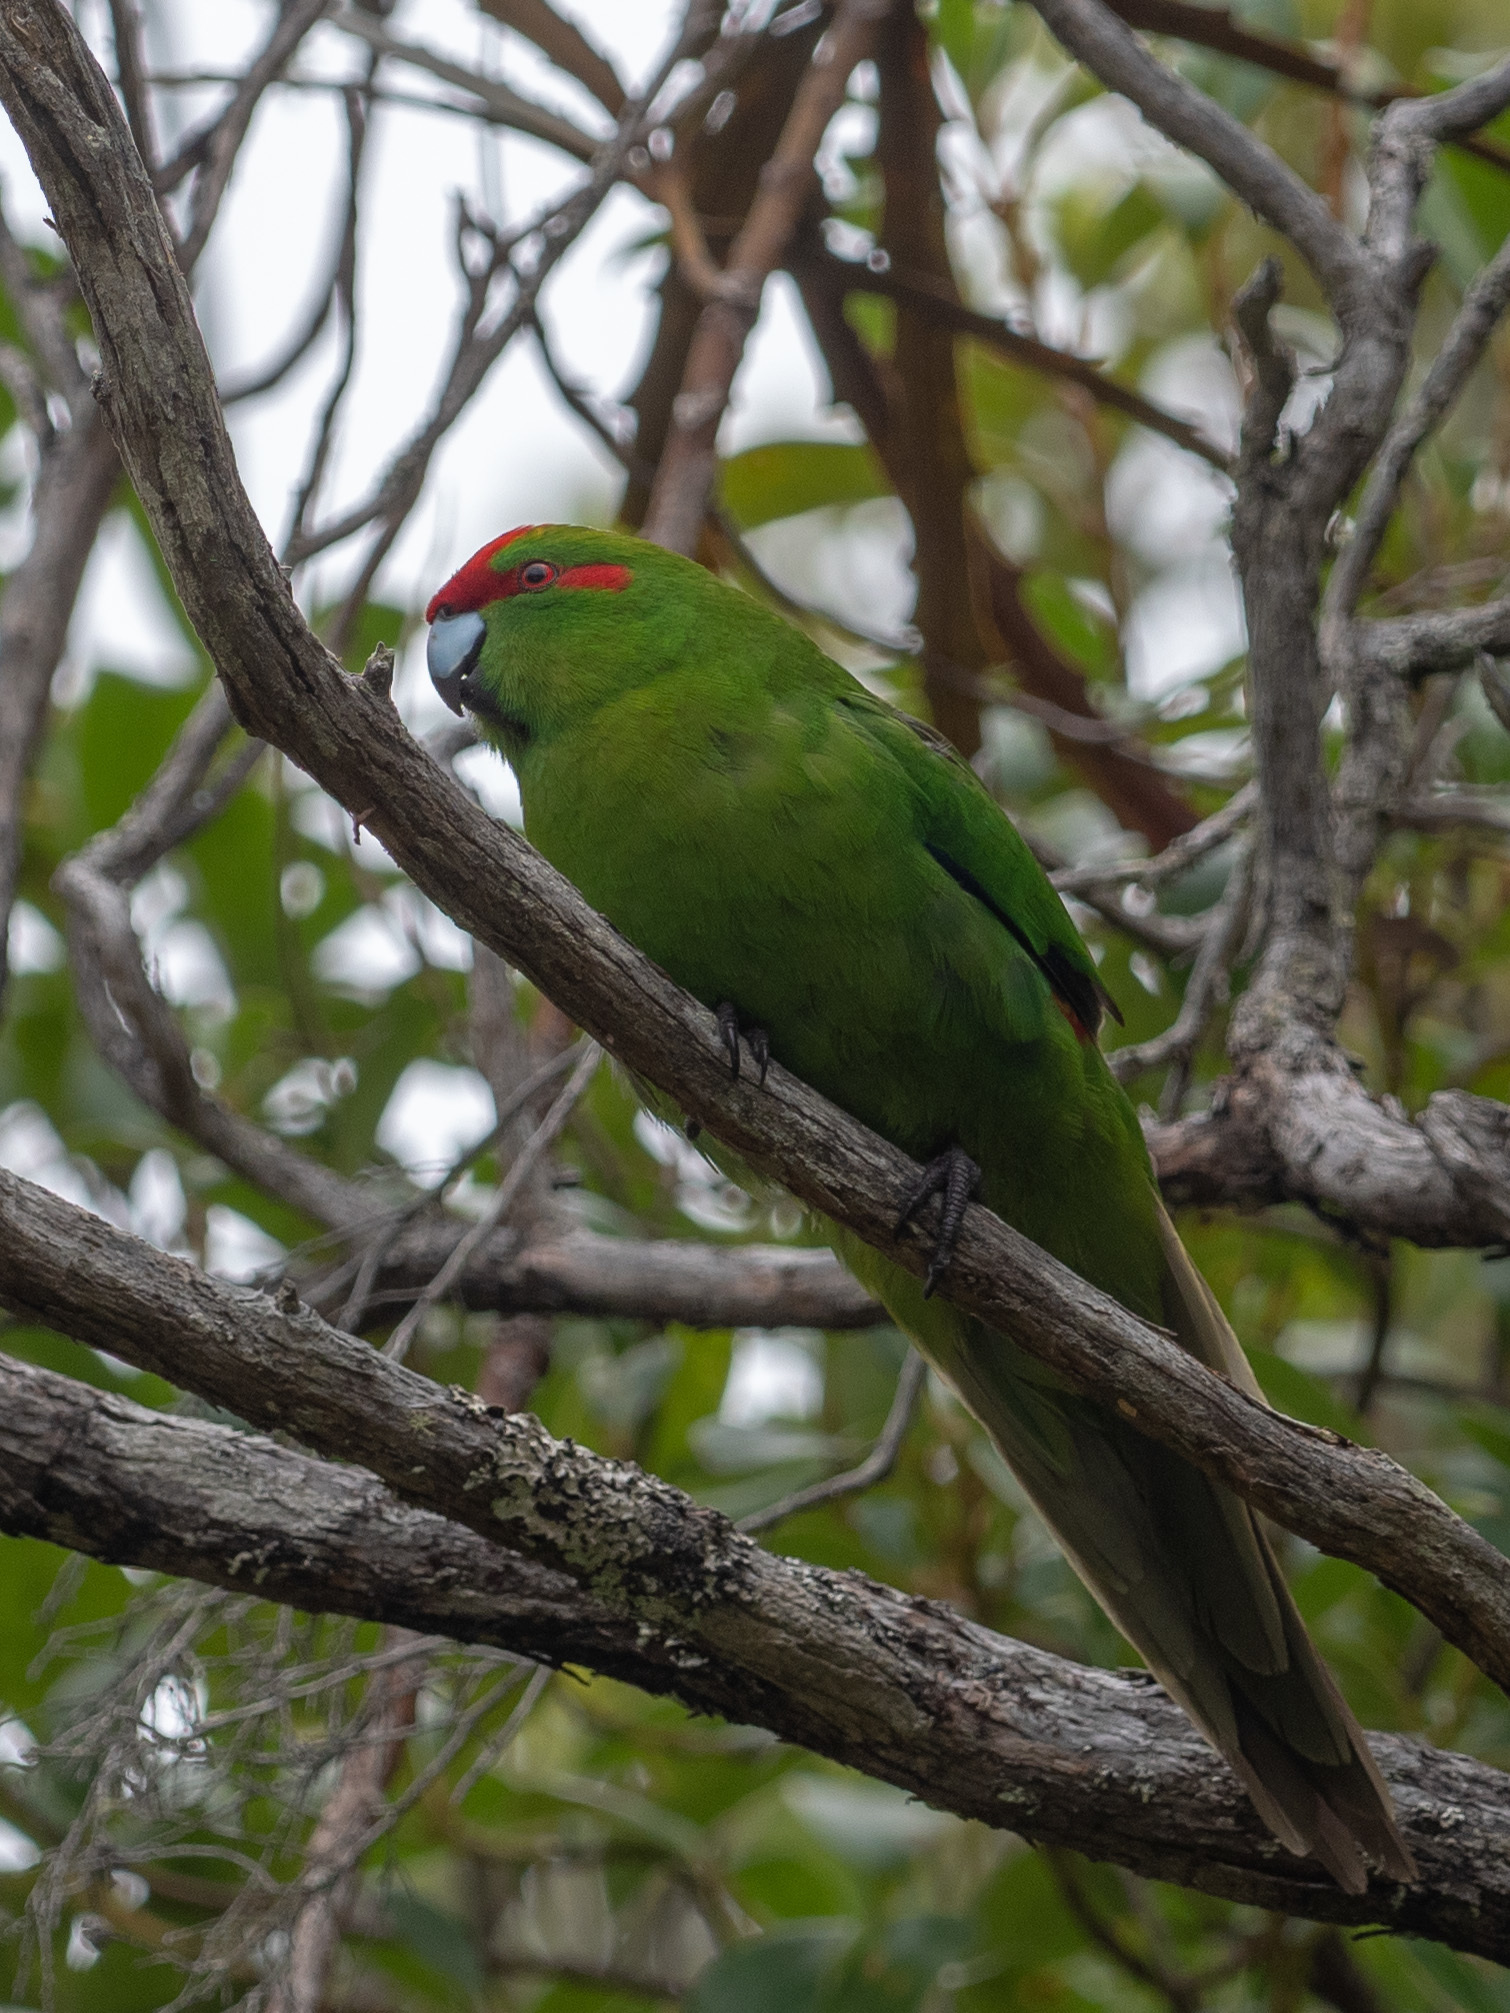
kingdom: Animalia
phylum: Chordata
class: Aves
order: Psittaciformes
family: Psittacidae
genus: Cyanoramphus
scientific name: Cyanoramphus novaezelandiae
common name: Red-fronted parakeet
